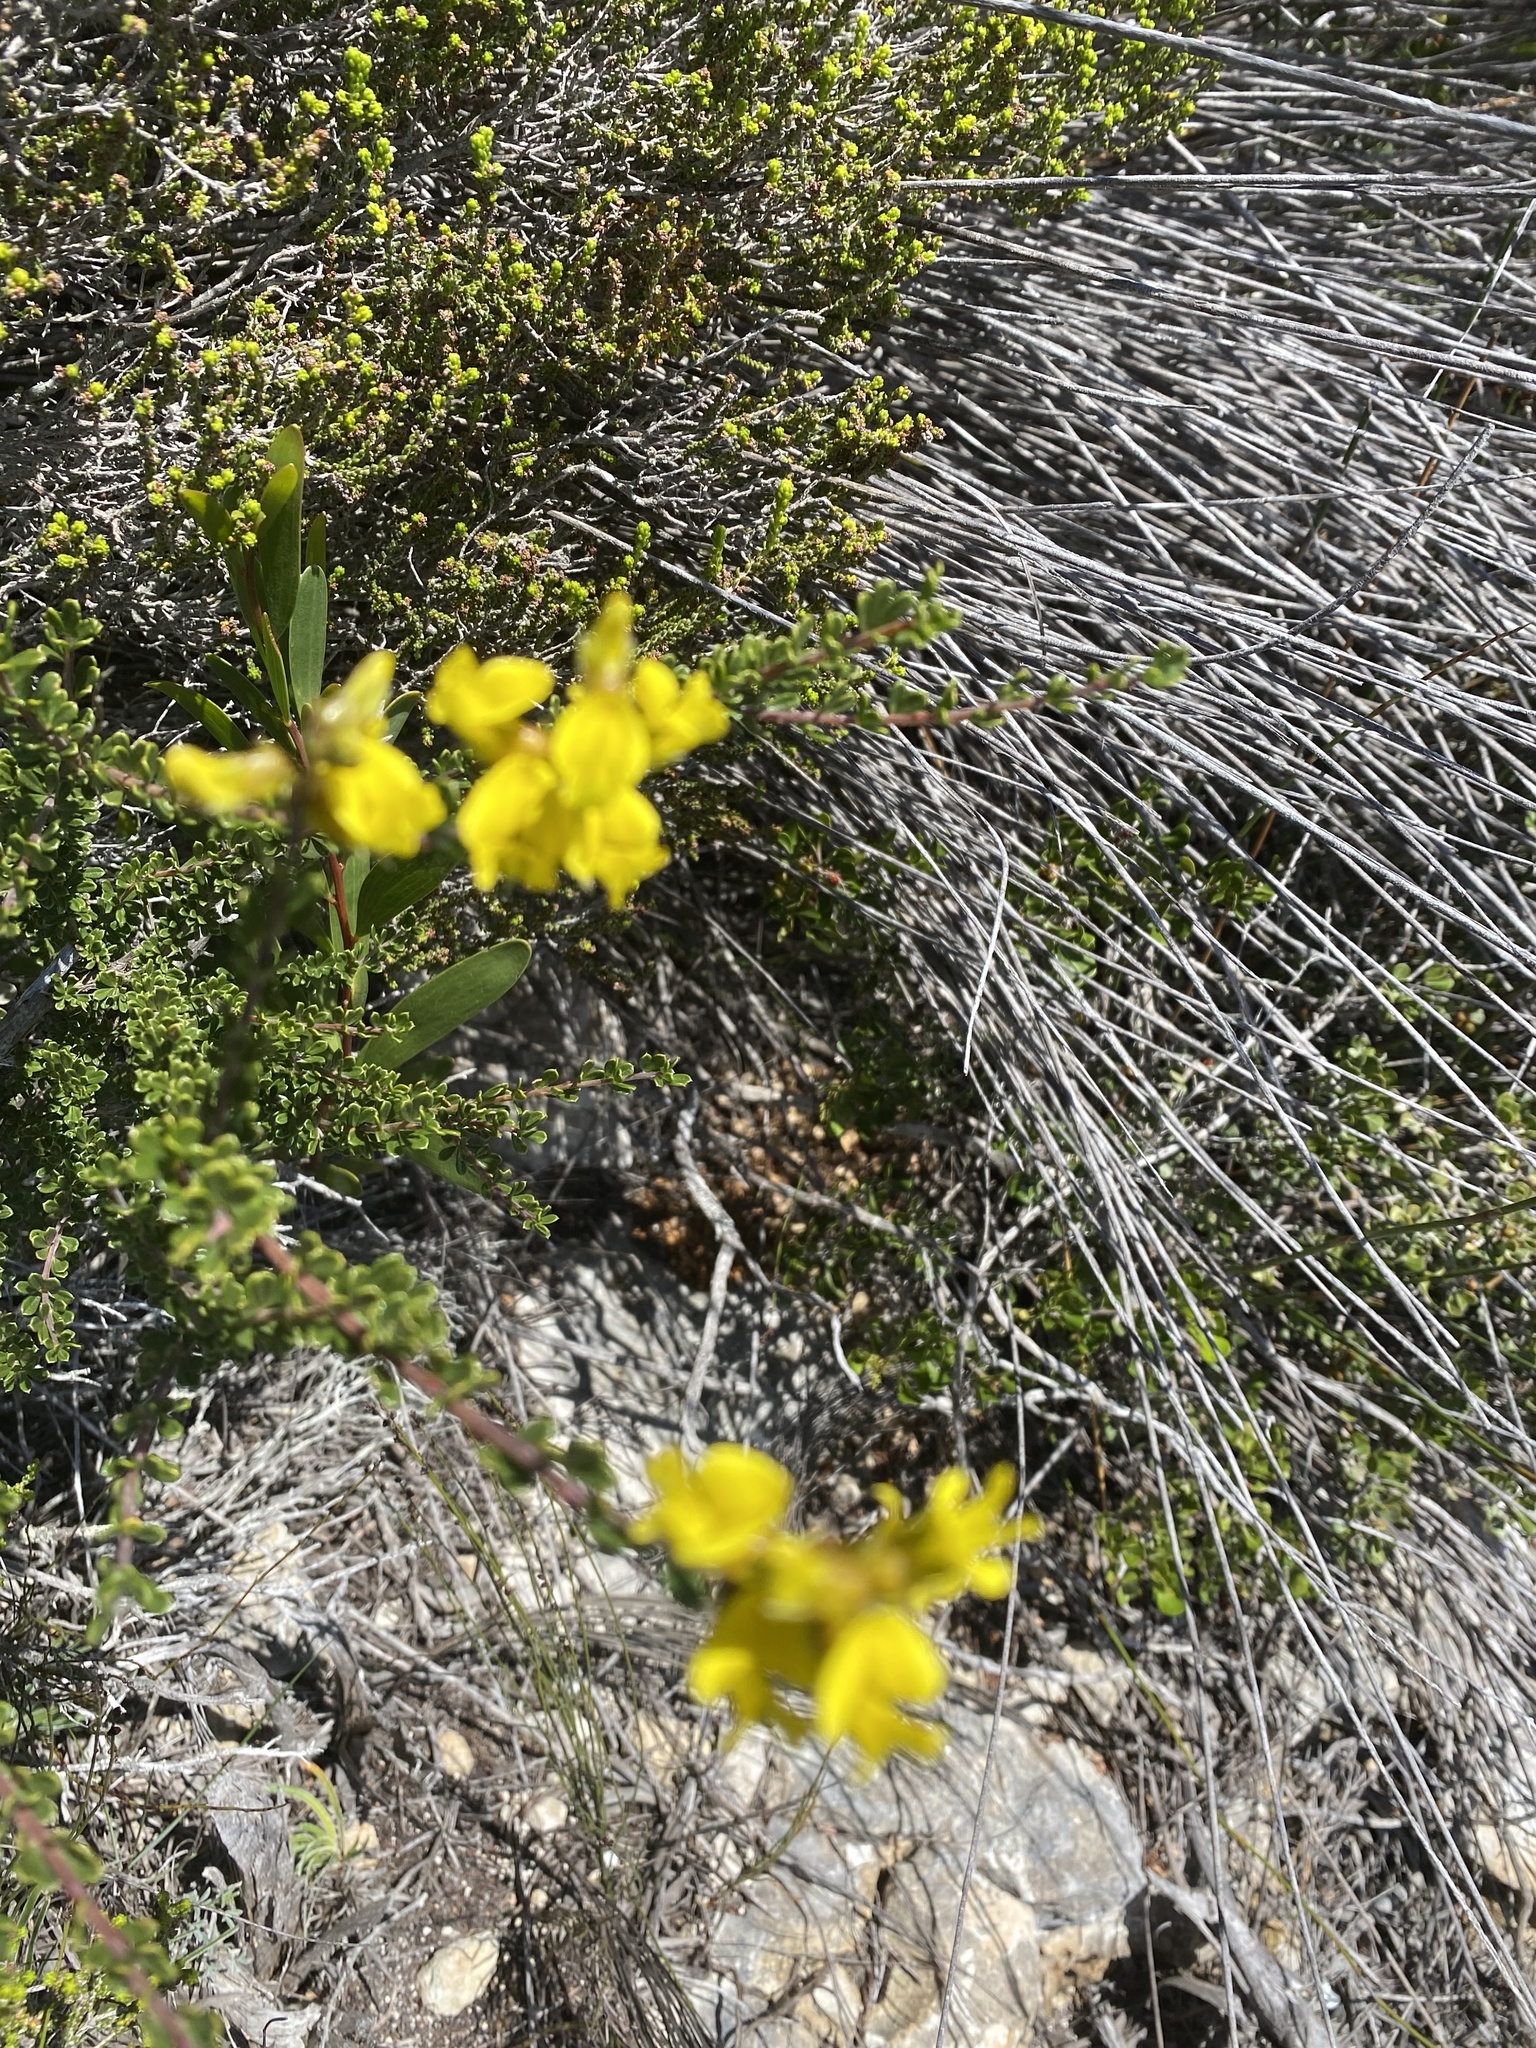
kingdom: Plantae
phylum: Tracheophyta
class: Magnoliopsida
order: Fabales
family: Fabaceae
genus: Wiborgiella
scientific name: Wiborgiella sessilifolia
